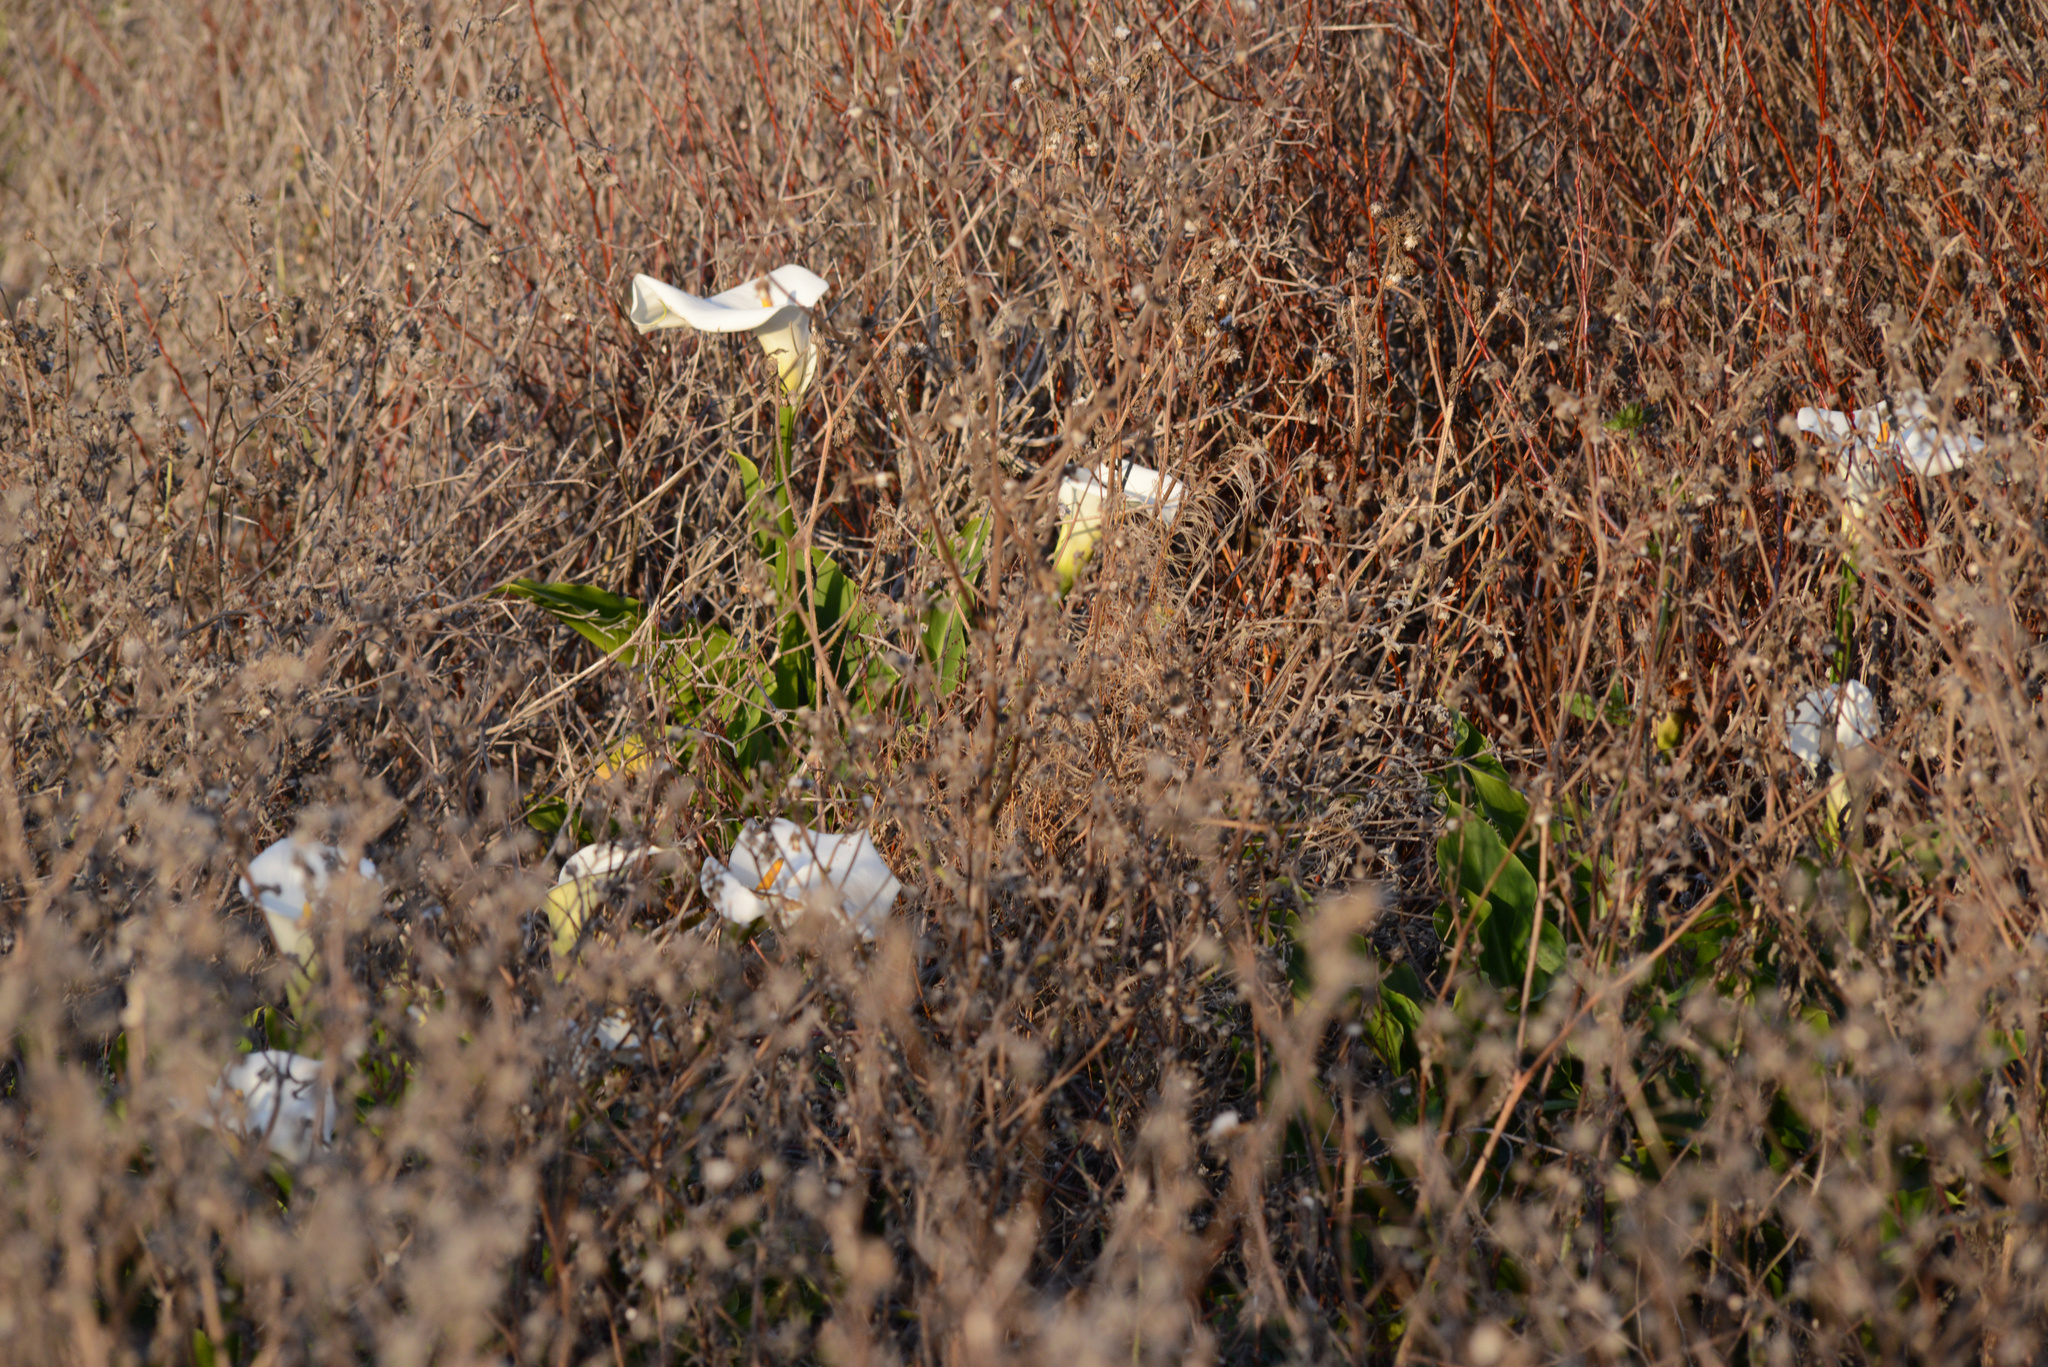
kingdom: Plantae
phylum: Tracheophyta
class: Liliopsida
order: Alismatales
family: Araceae
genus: Zantedeschia
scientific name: Zantedeschia aethiopica
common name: Altar-lily
